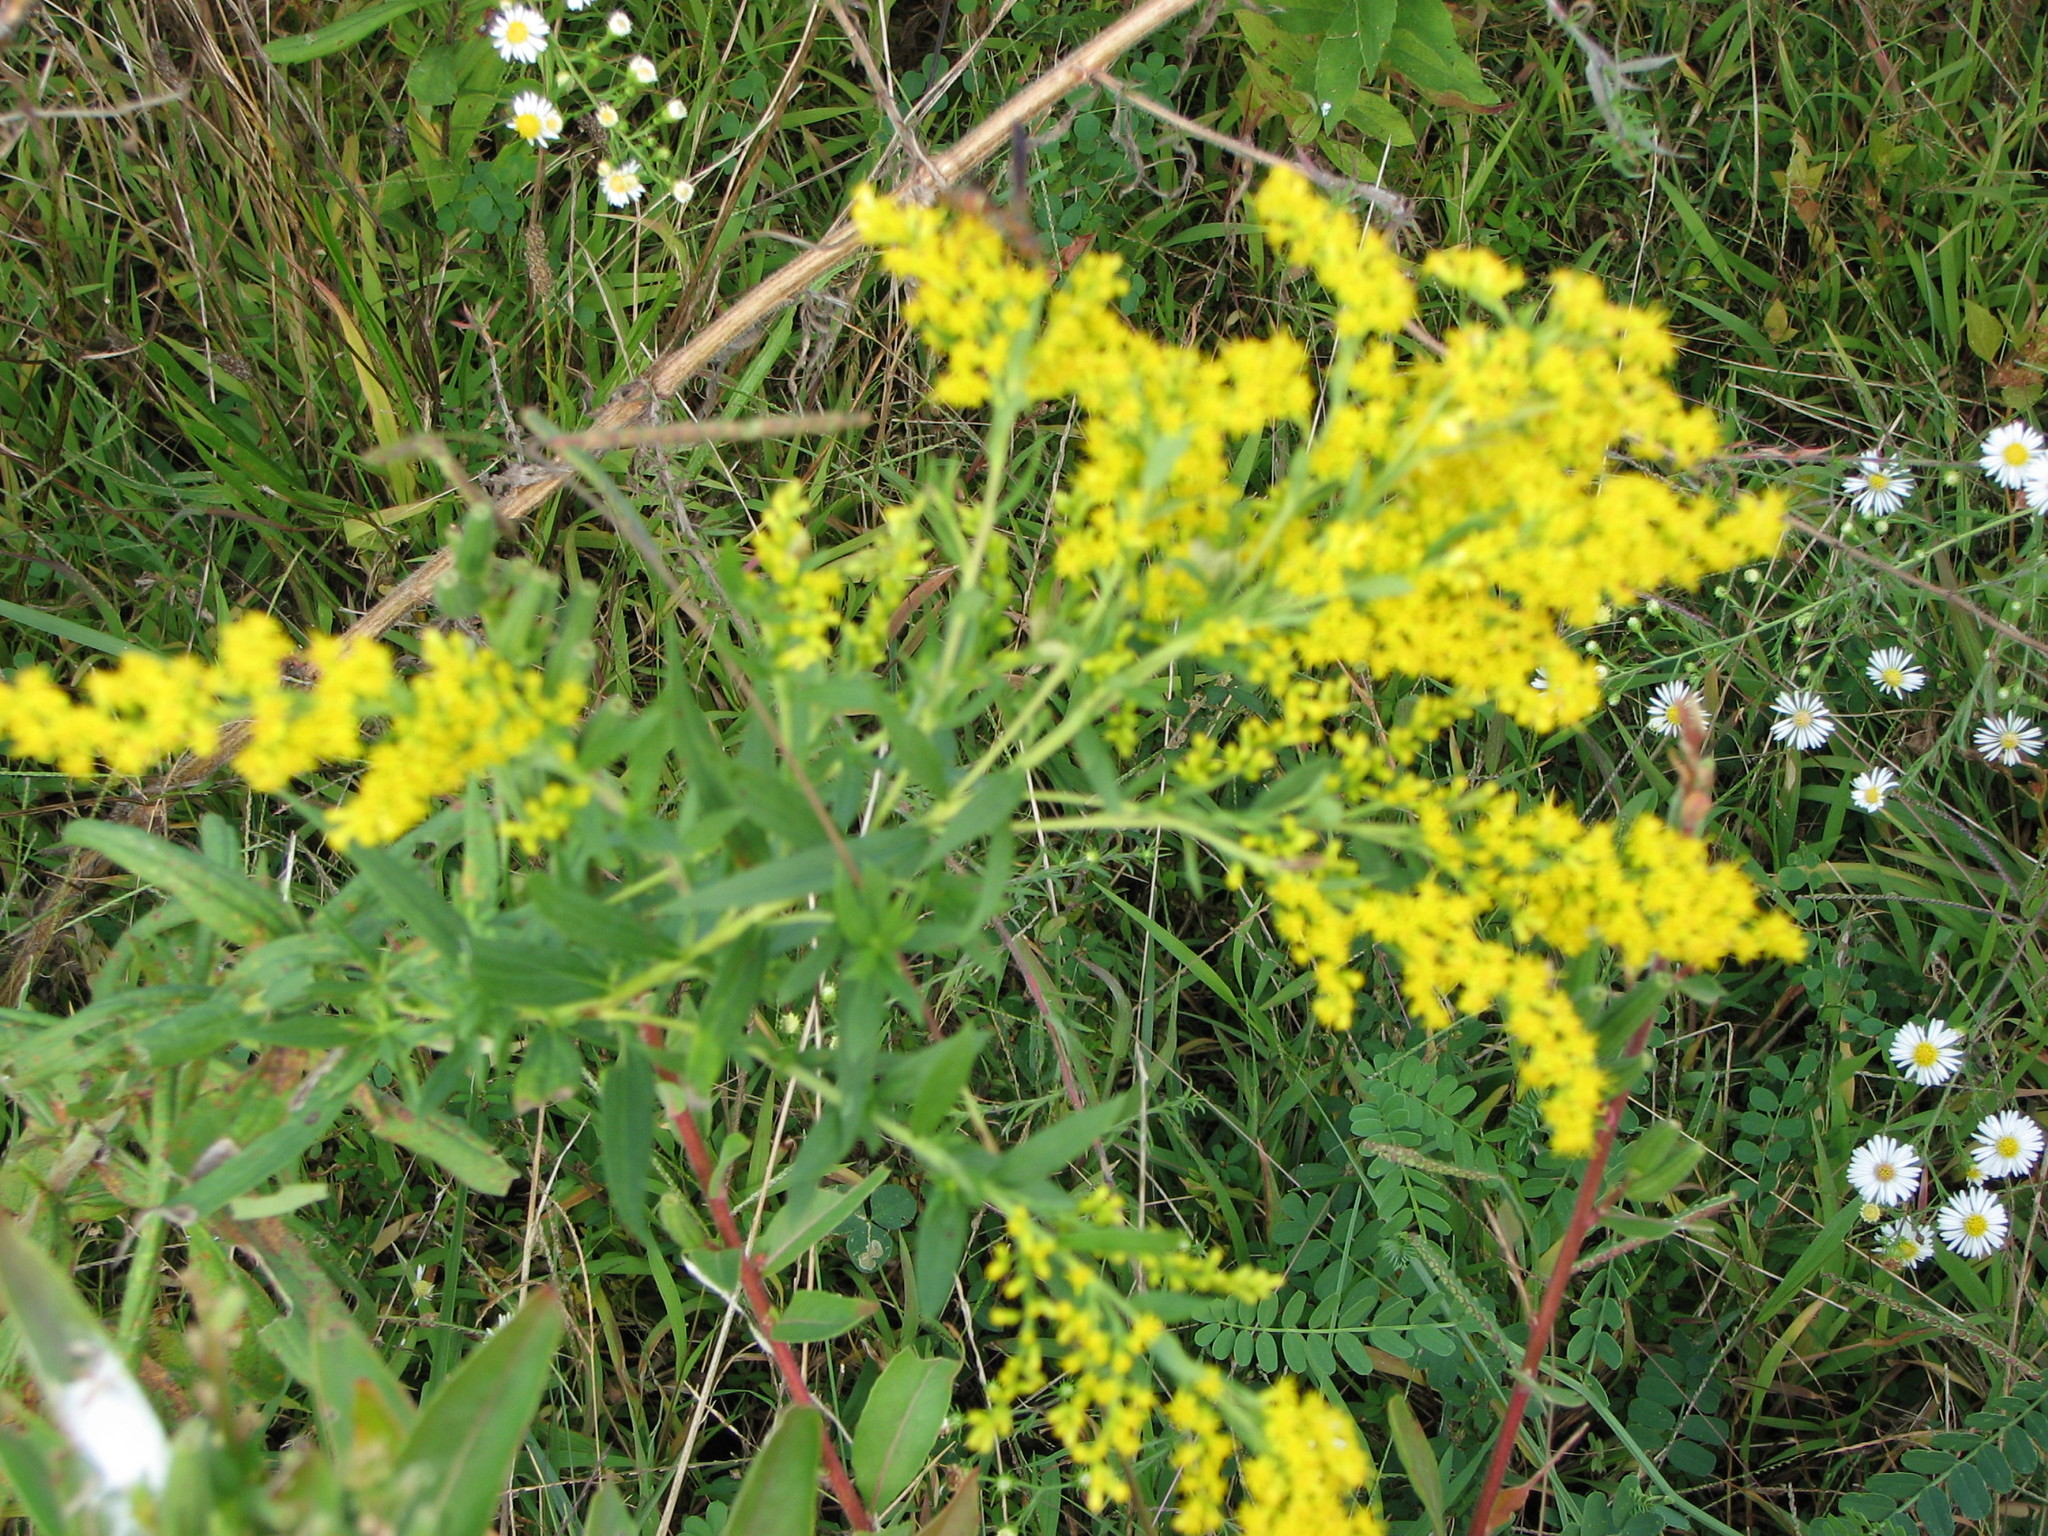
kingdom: Plantae
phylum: Tracheophyta
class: Magnoliopsida
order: Asterales
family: Asteraceae
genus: Solidago
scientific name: Solidago rugosa
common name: Rough-stemmed goldenrod
